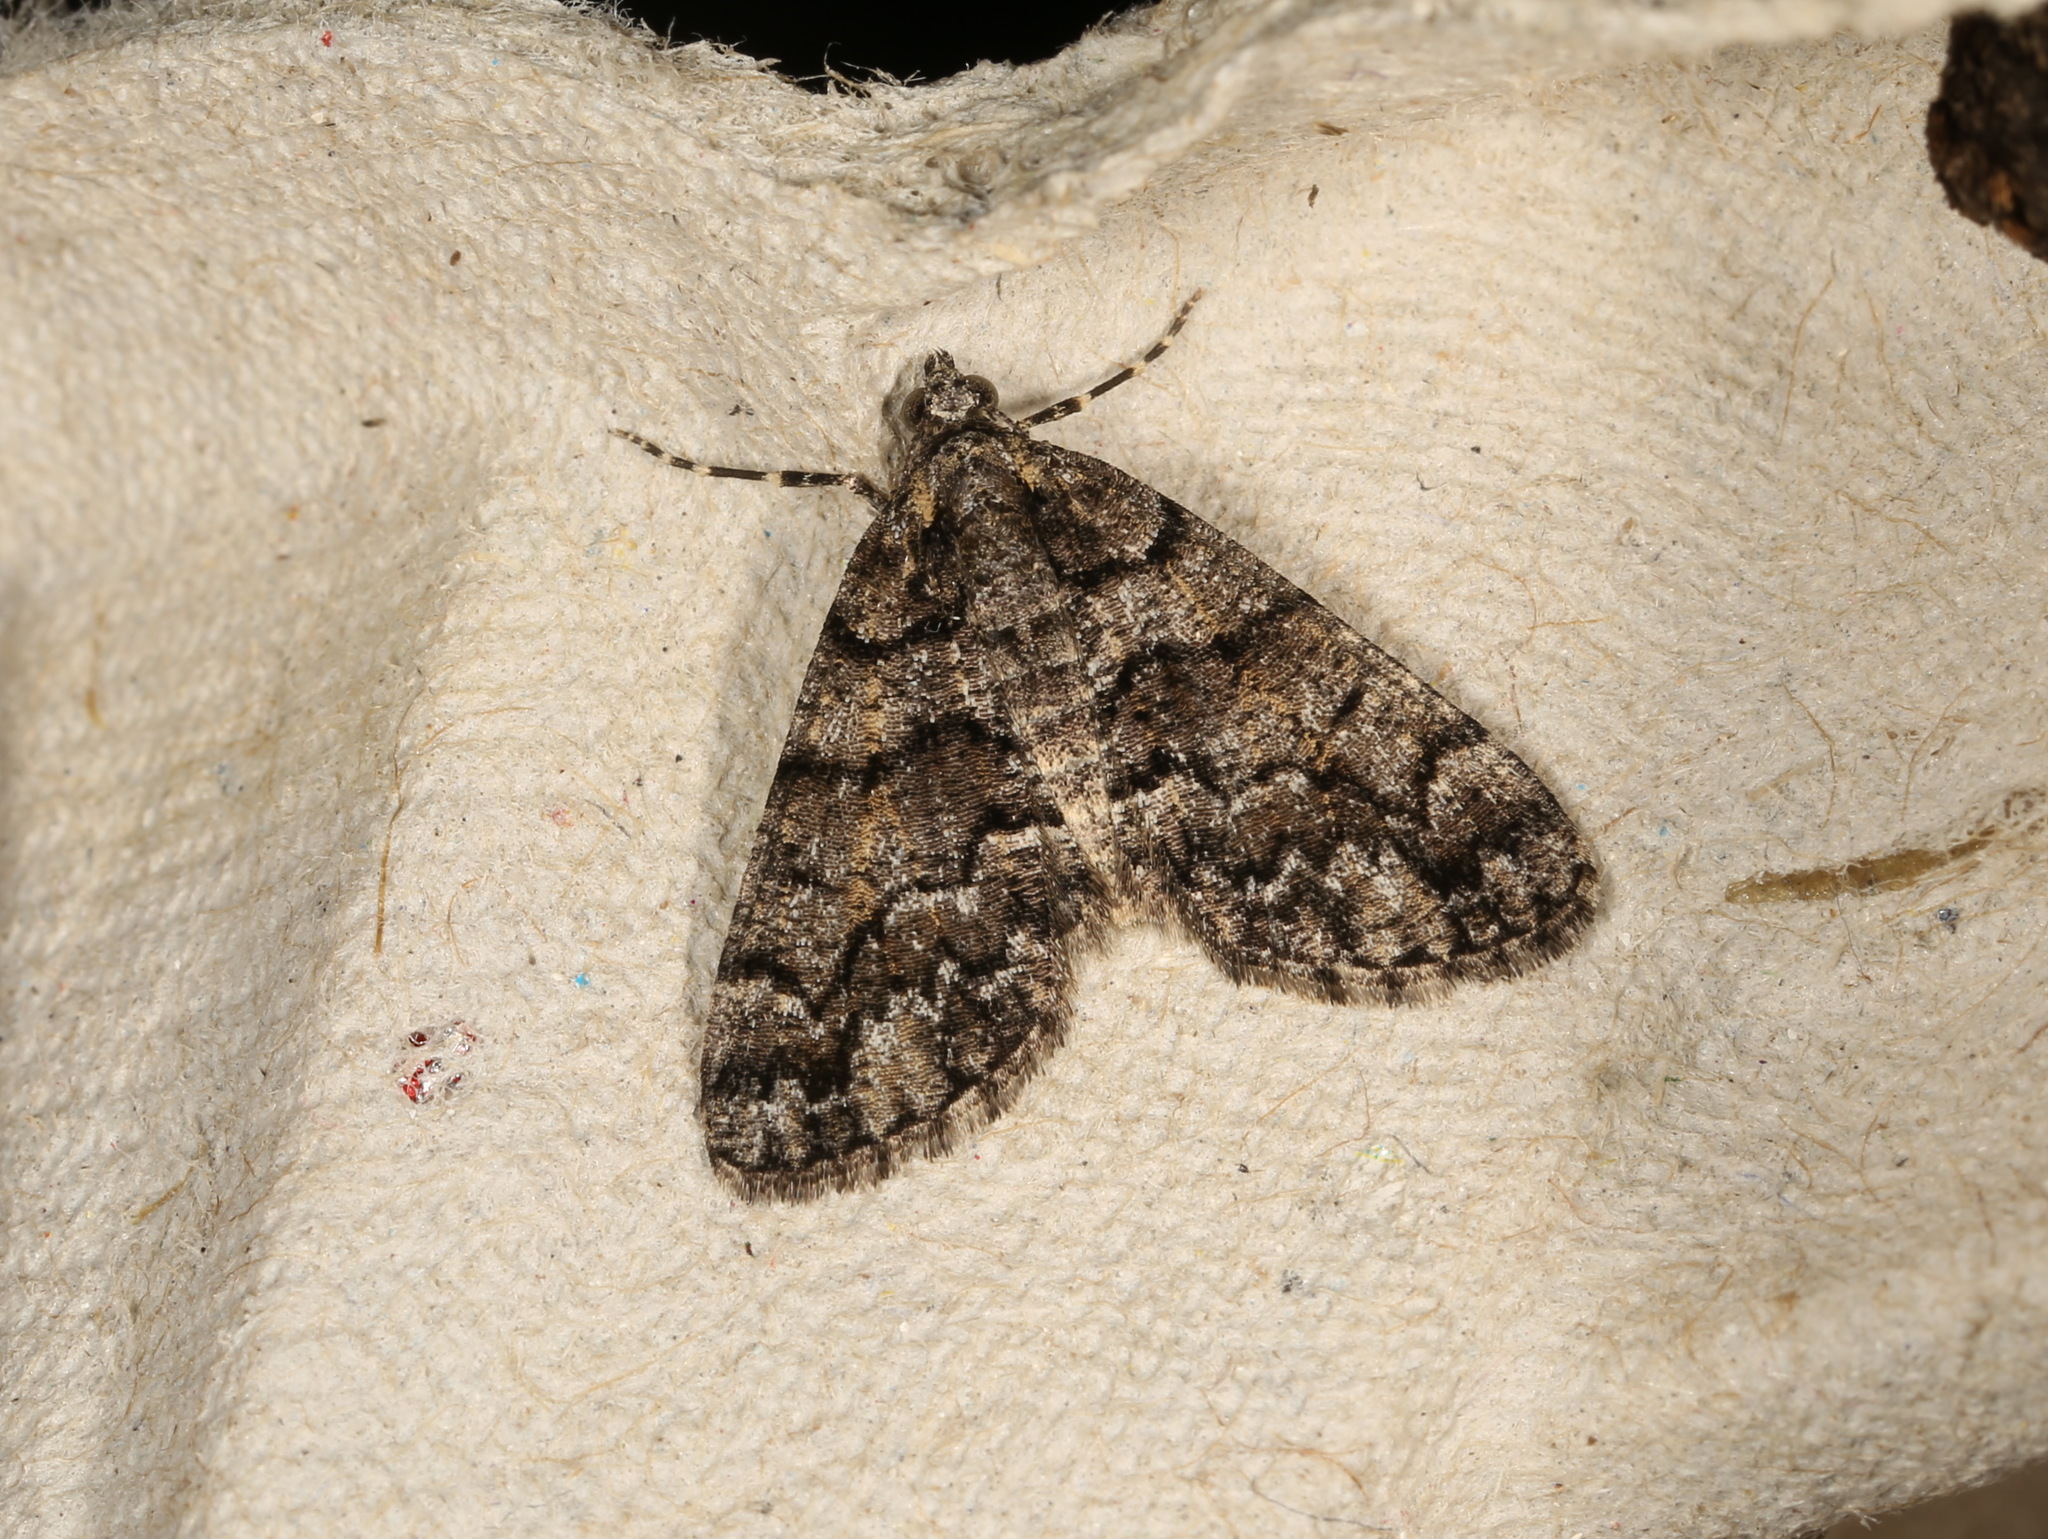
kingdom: Animalia
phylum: Arthropoda
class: Insecta
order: Lepidoptera
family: Geometridae
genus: Lipogya
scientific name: Lipogya exprimataria
